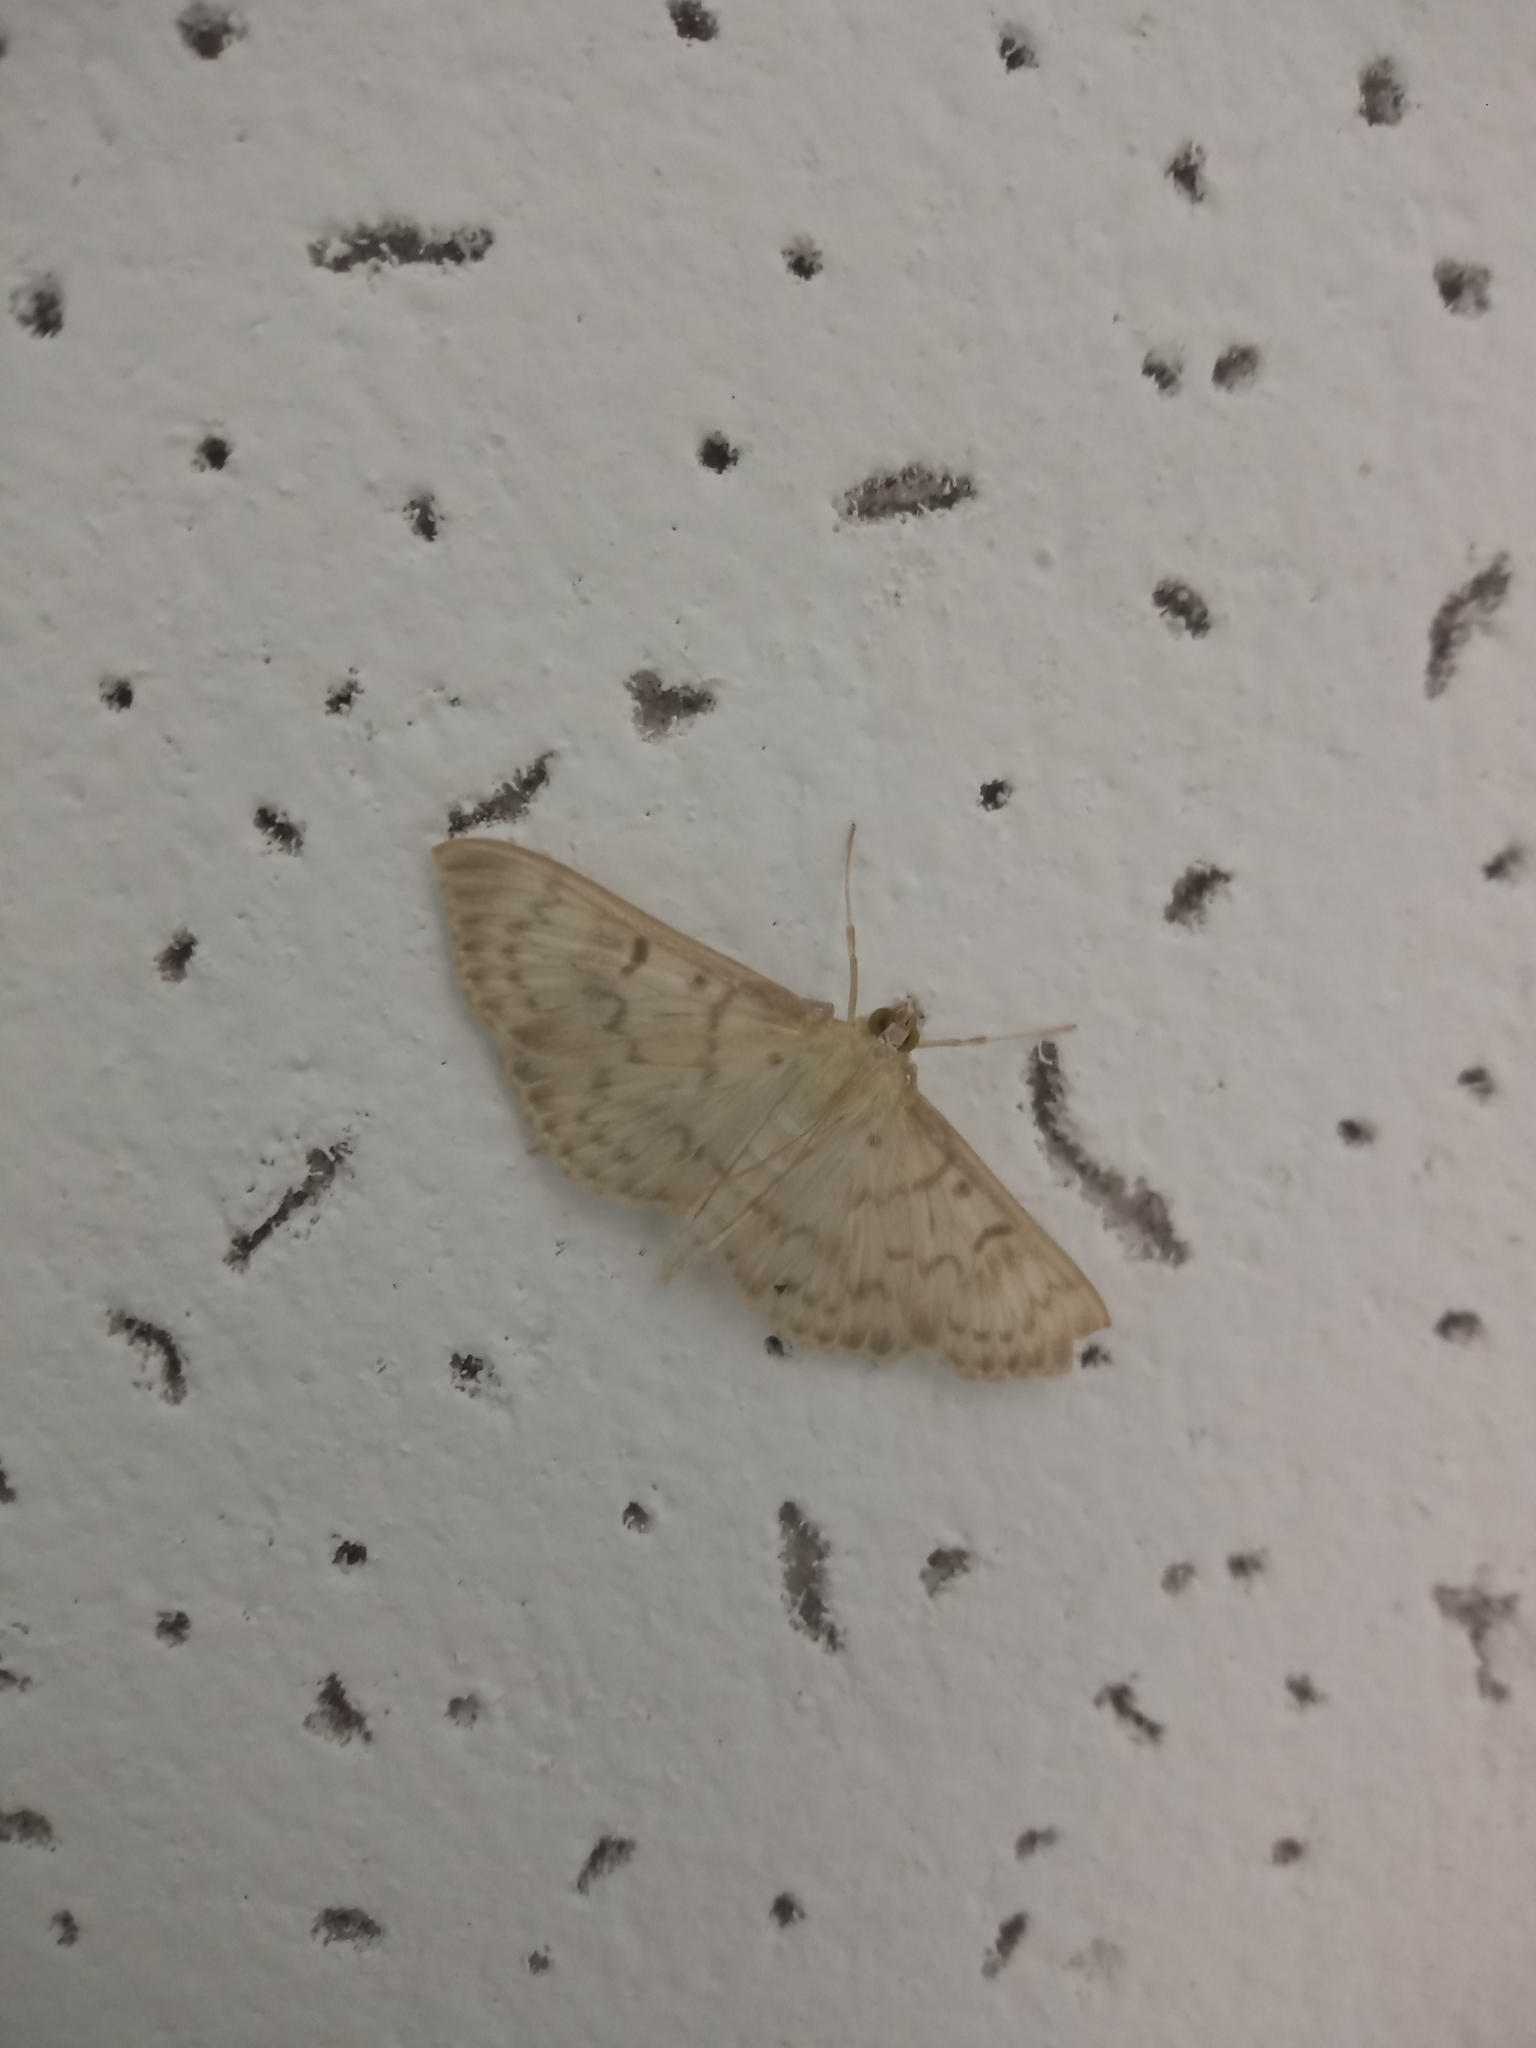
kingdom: Animalia
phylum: Arthropoda
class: Insecta
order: Lepidoptera
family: Crambidae
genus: Patania
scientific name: Patania ruralis
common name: Mother of pearl
